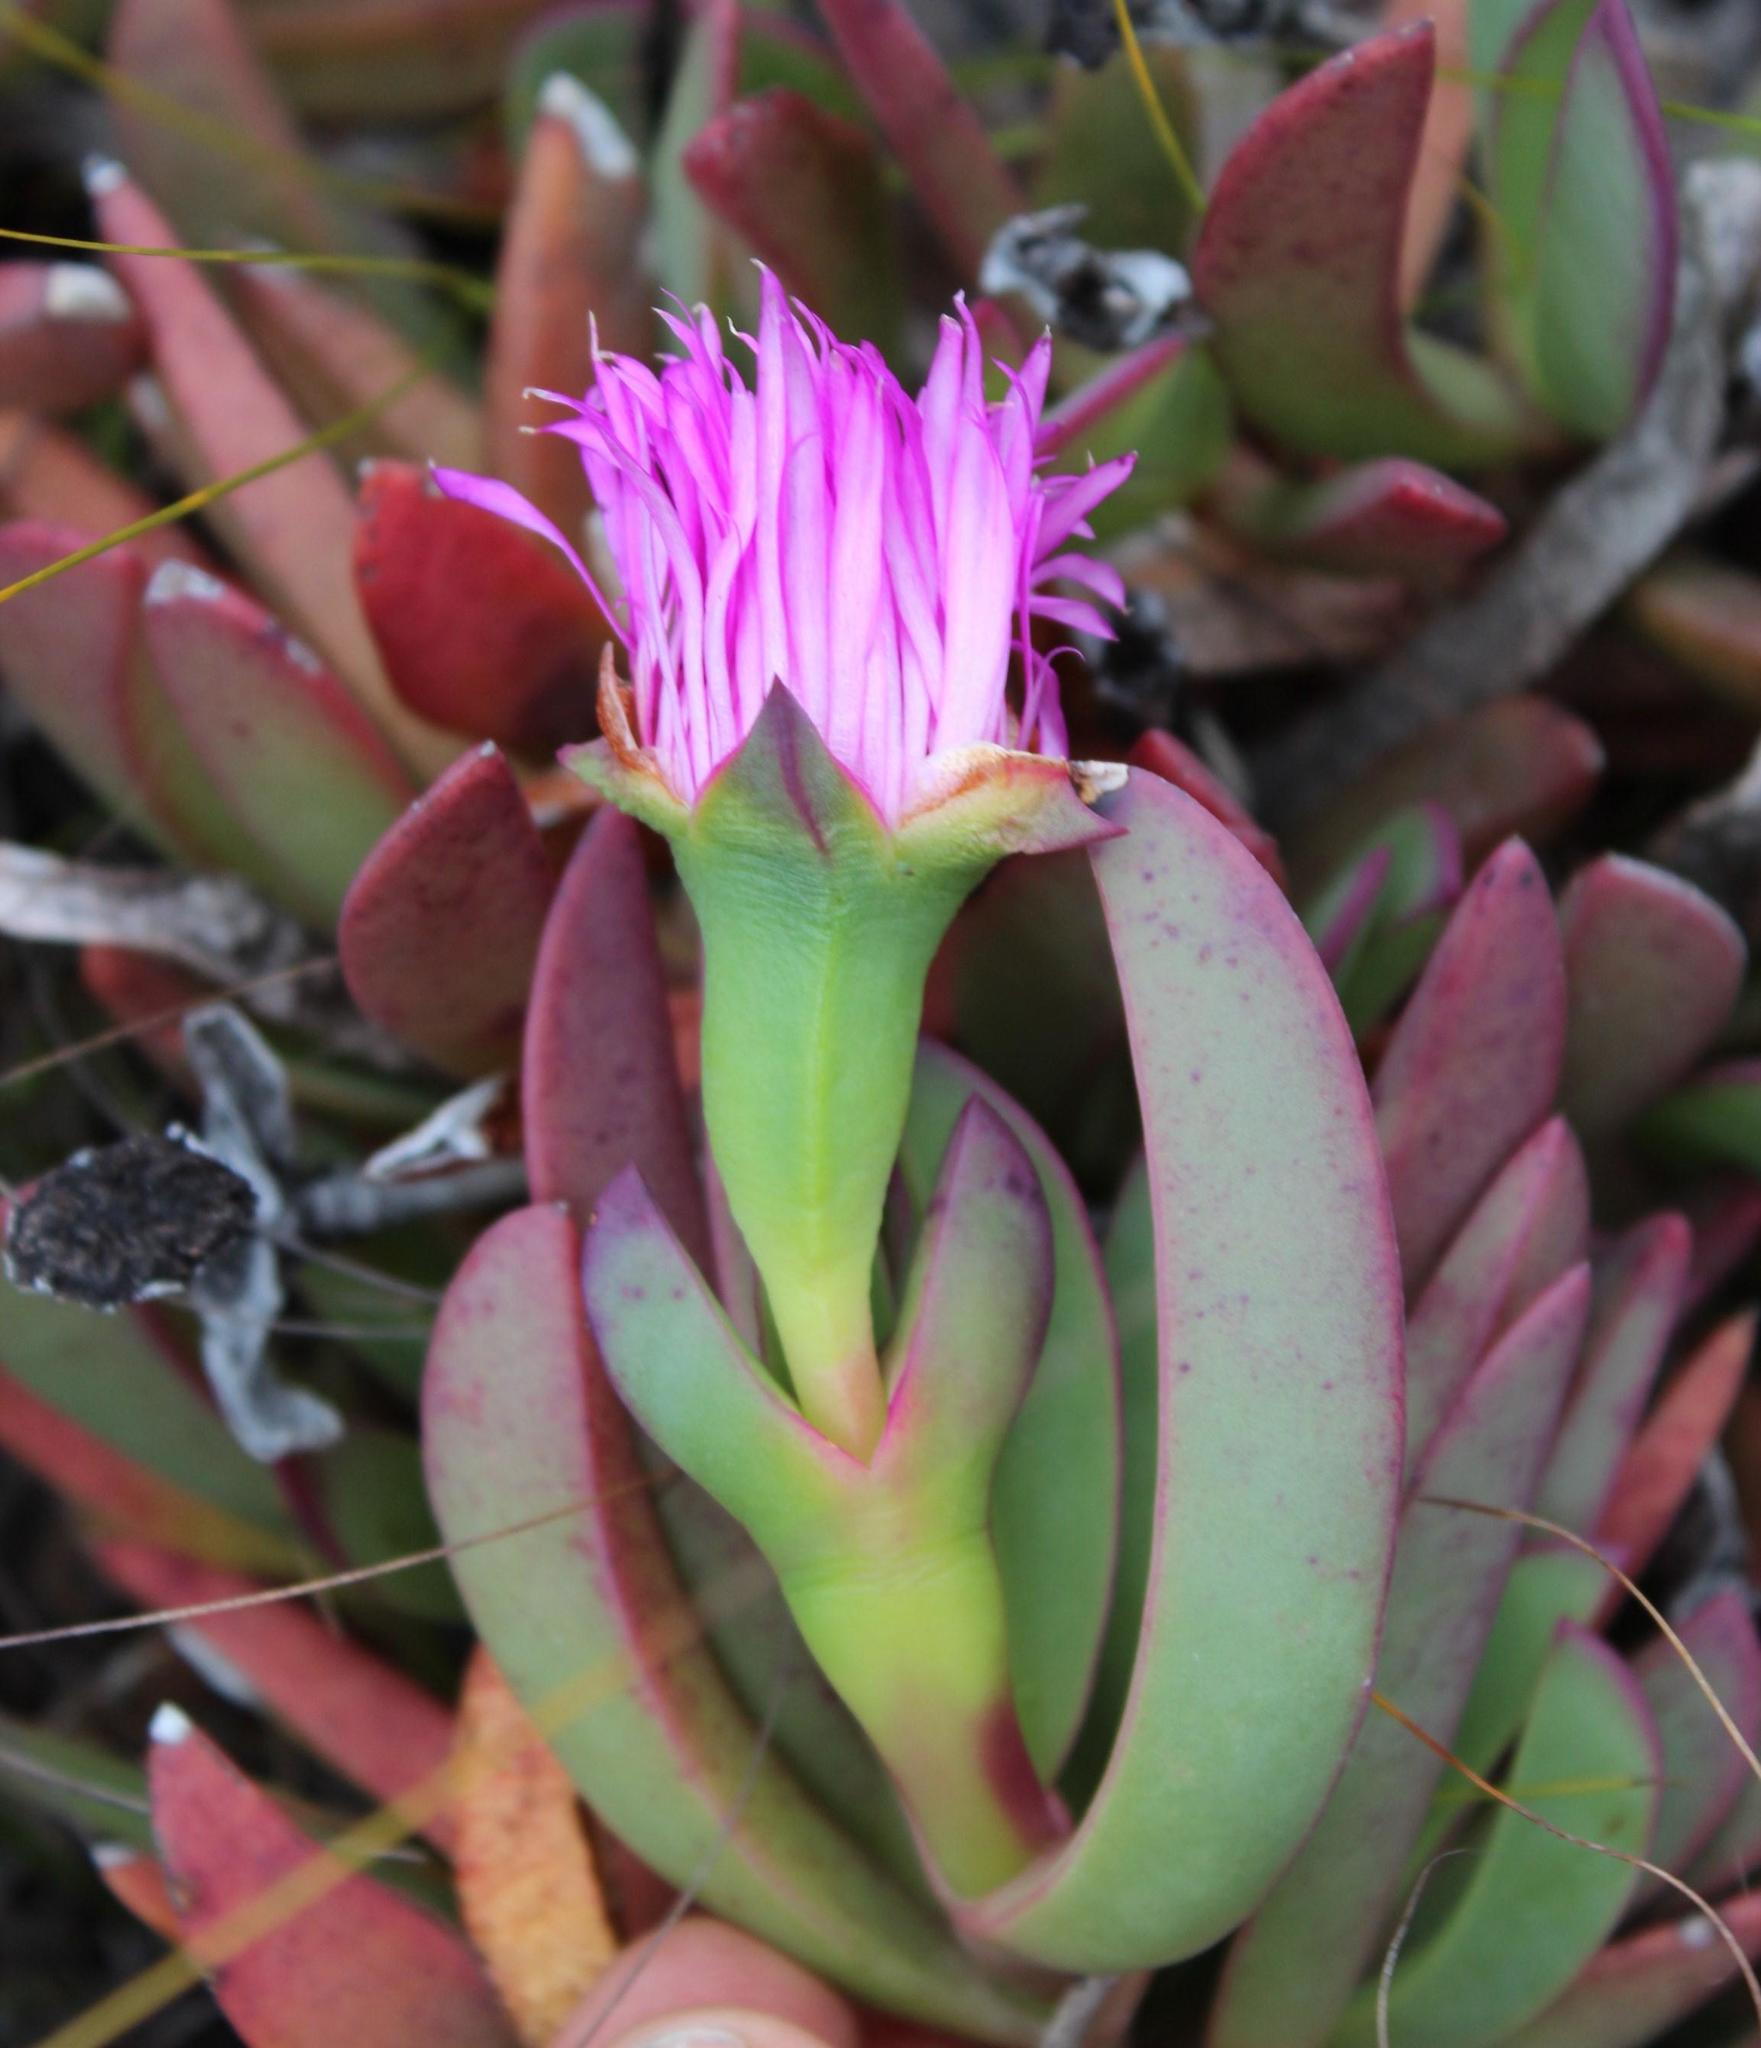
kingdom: Plantae
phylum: Tracheophyta
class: Magnoliopsida
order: Caryophyllales
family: Aizoaceae
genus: Carpobrotus
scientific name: Carpobrotus mellei
